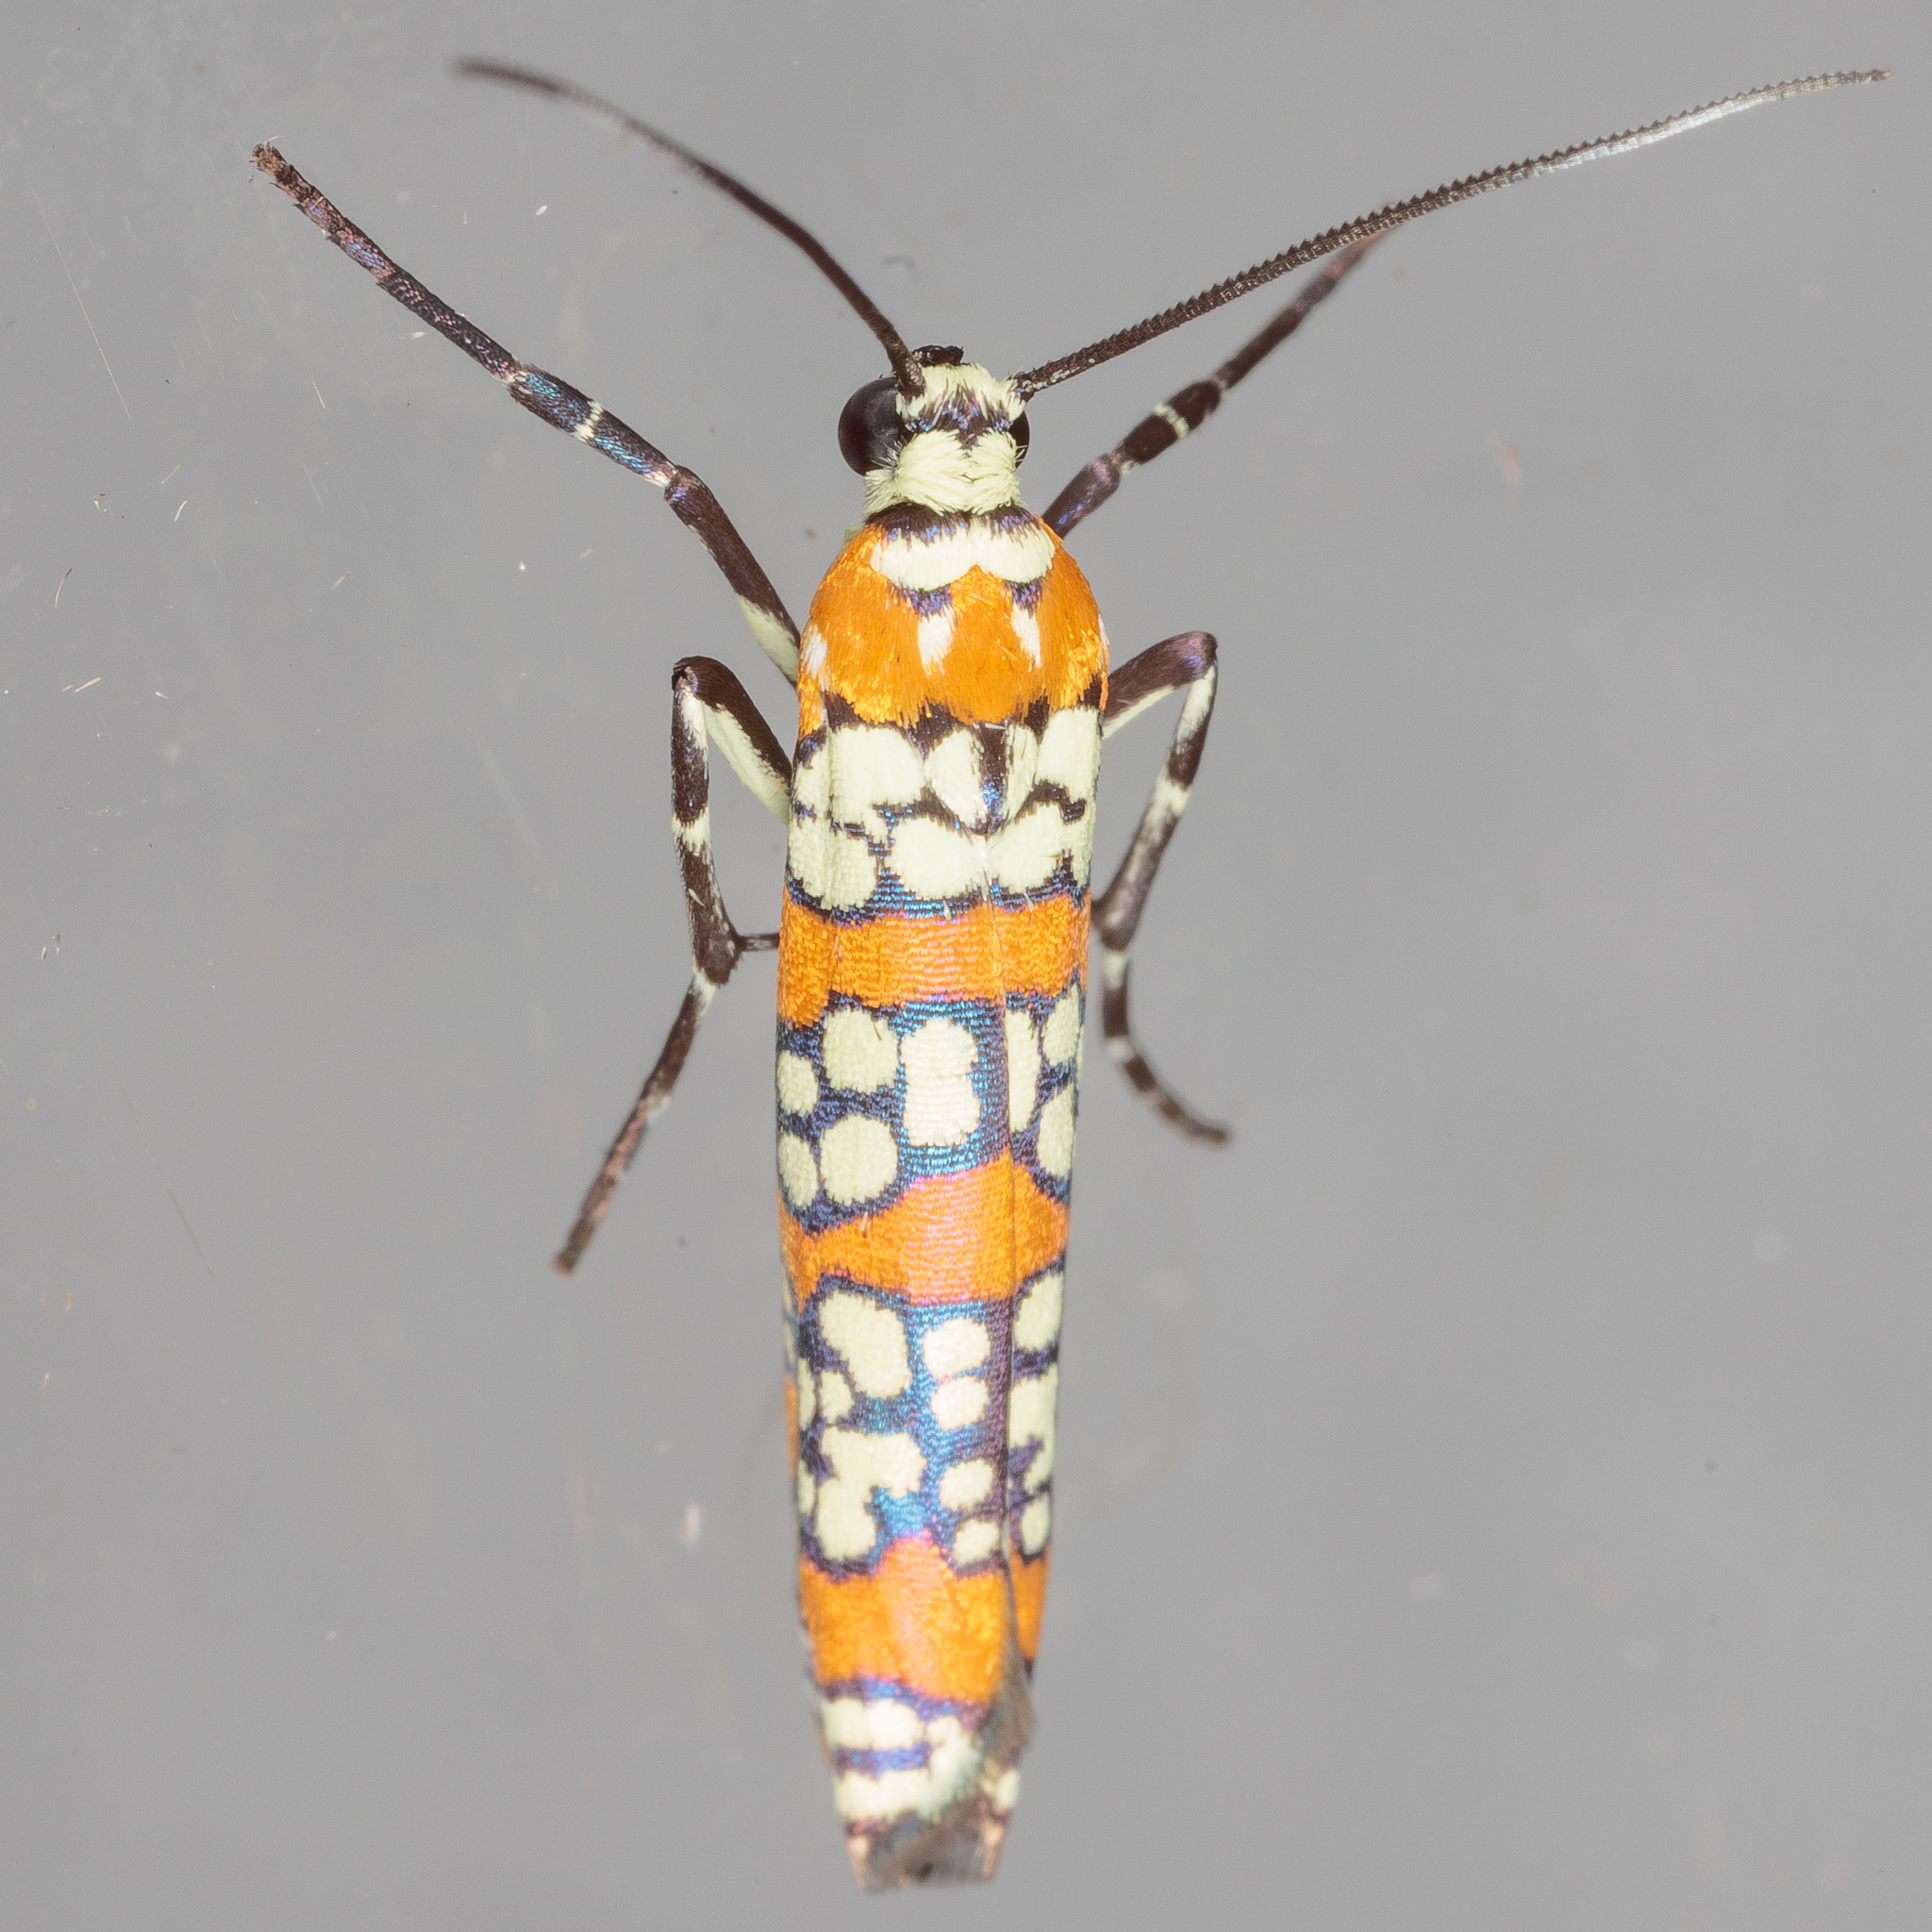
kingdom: Animalia
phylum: Arthropoda
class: Insecta
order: Lepidoptera
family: Attevidae
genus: Atteva
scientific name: Atteva punctella
